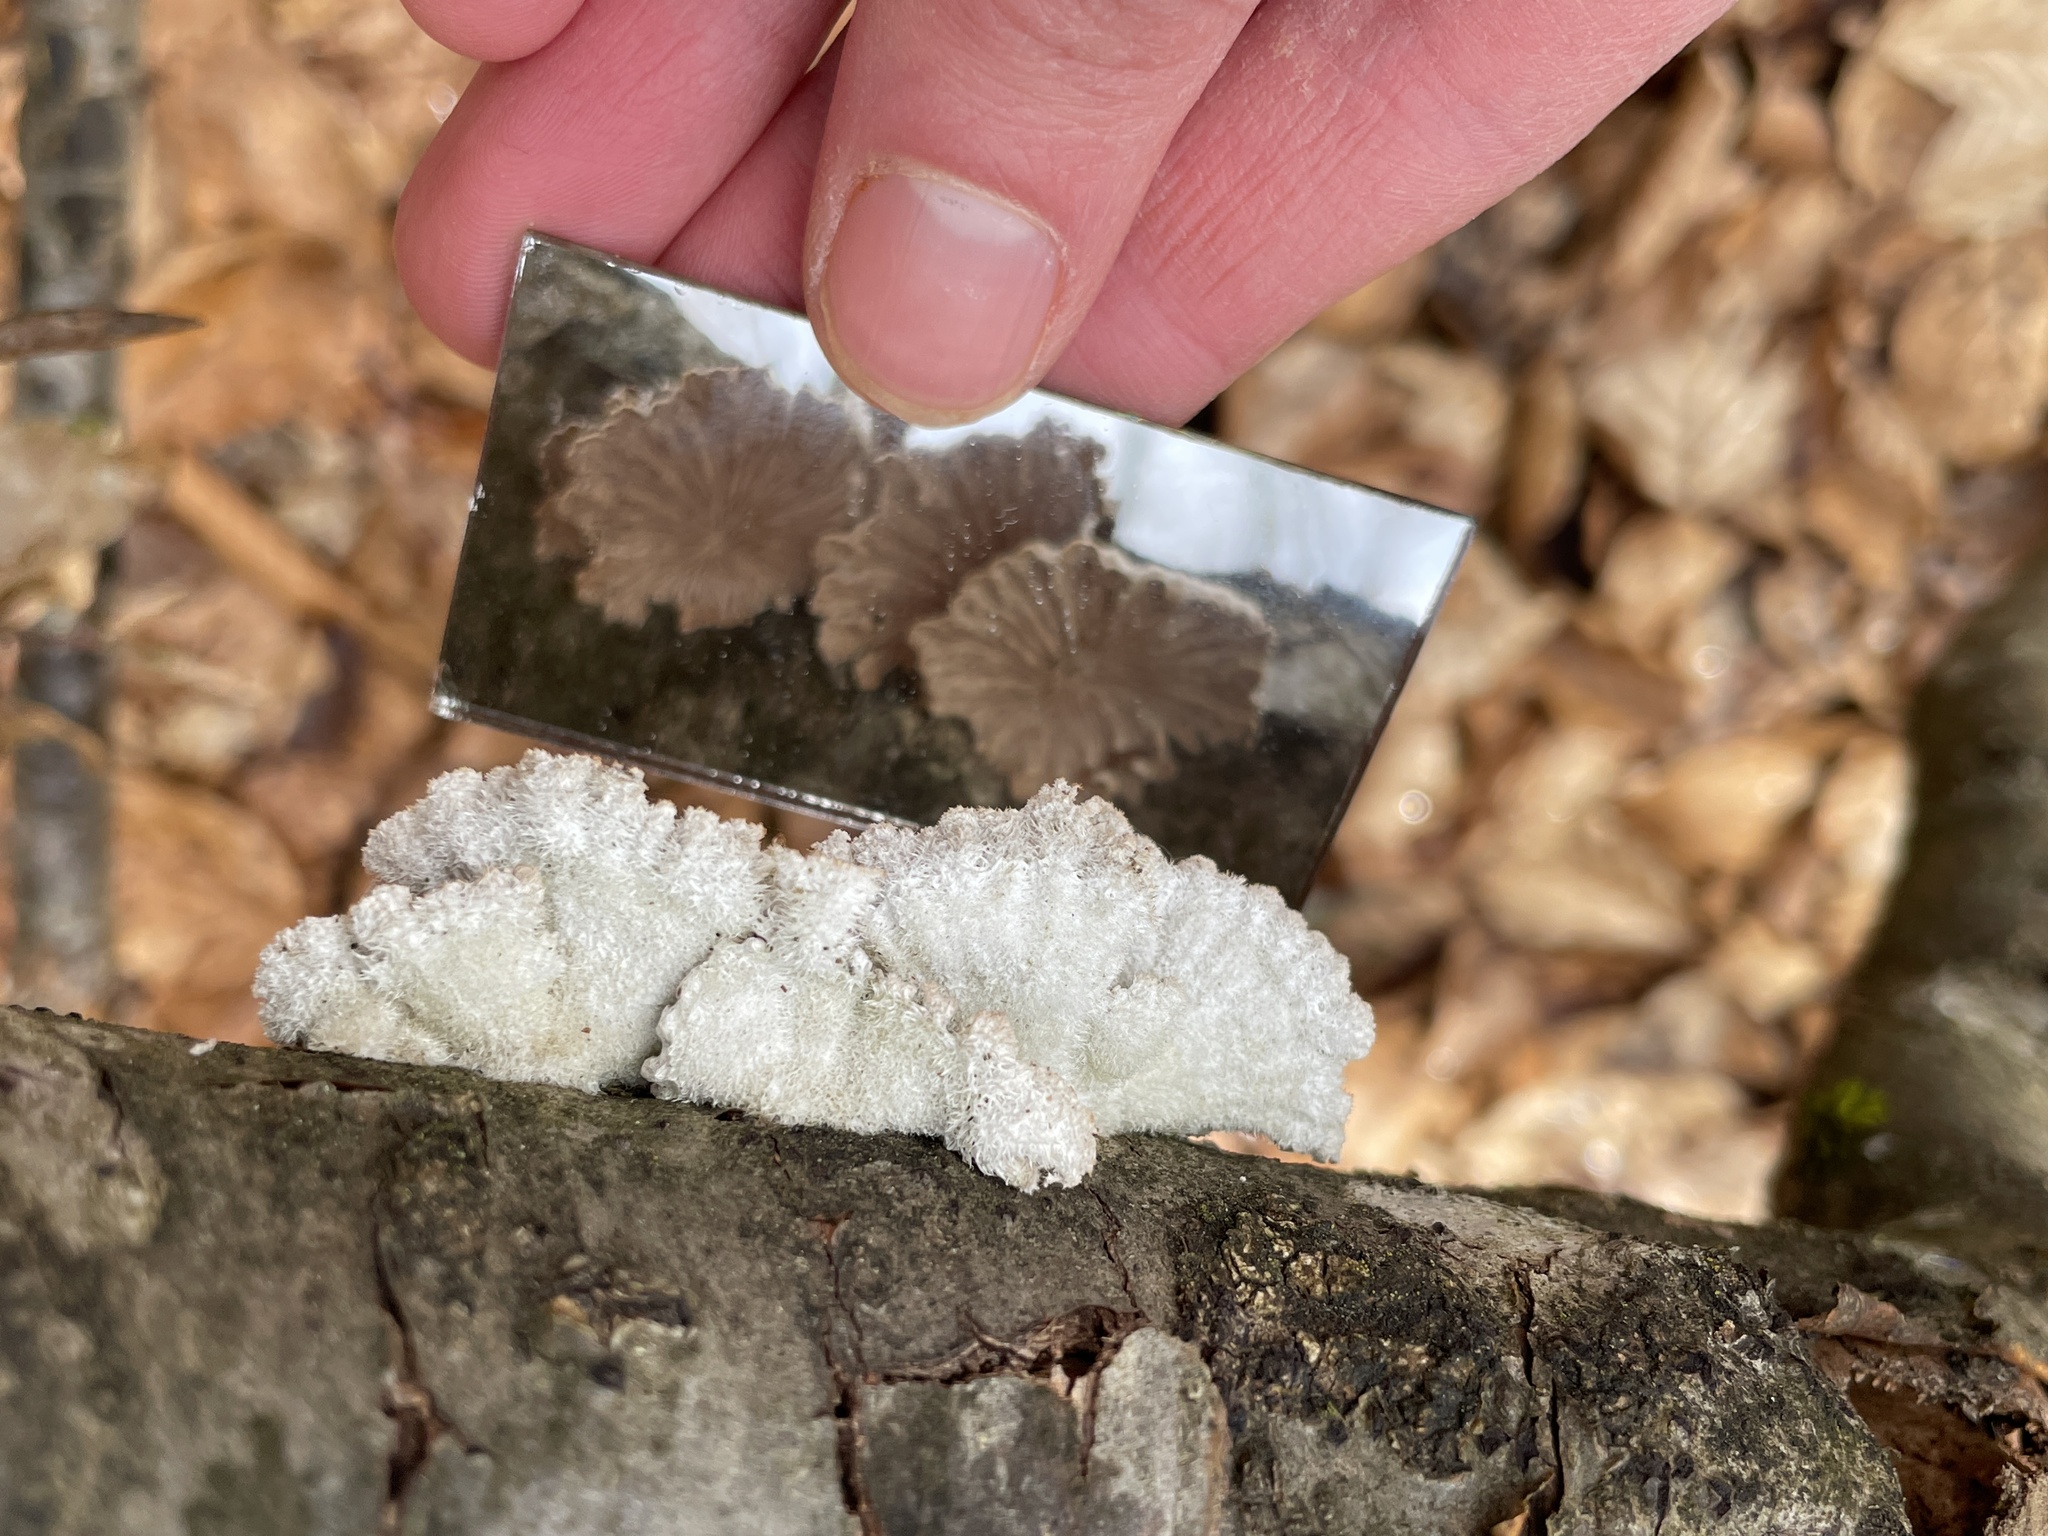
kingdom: Fungi
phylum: Basidiomycota
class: Agaricomycetes
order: Agaricales
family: Schizophyllaceae
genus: Schizophyllum
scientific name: Schizophyllum commune
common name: Common porecrust
